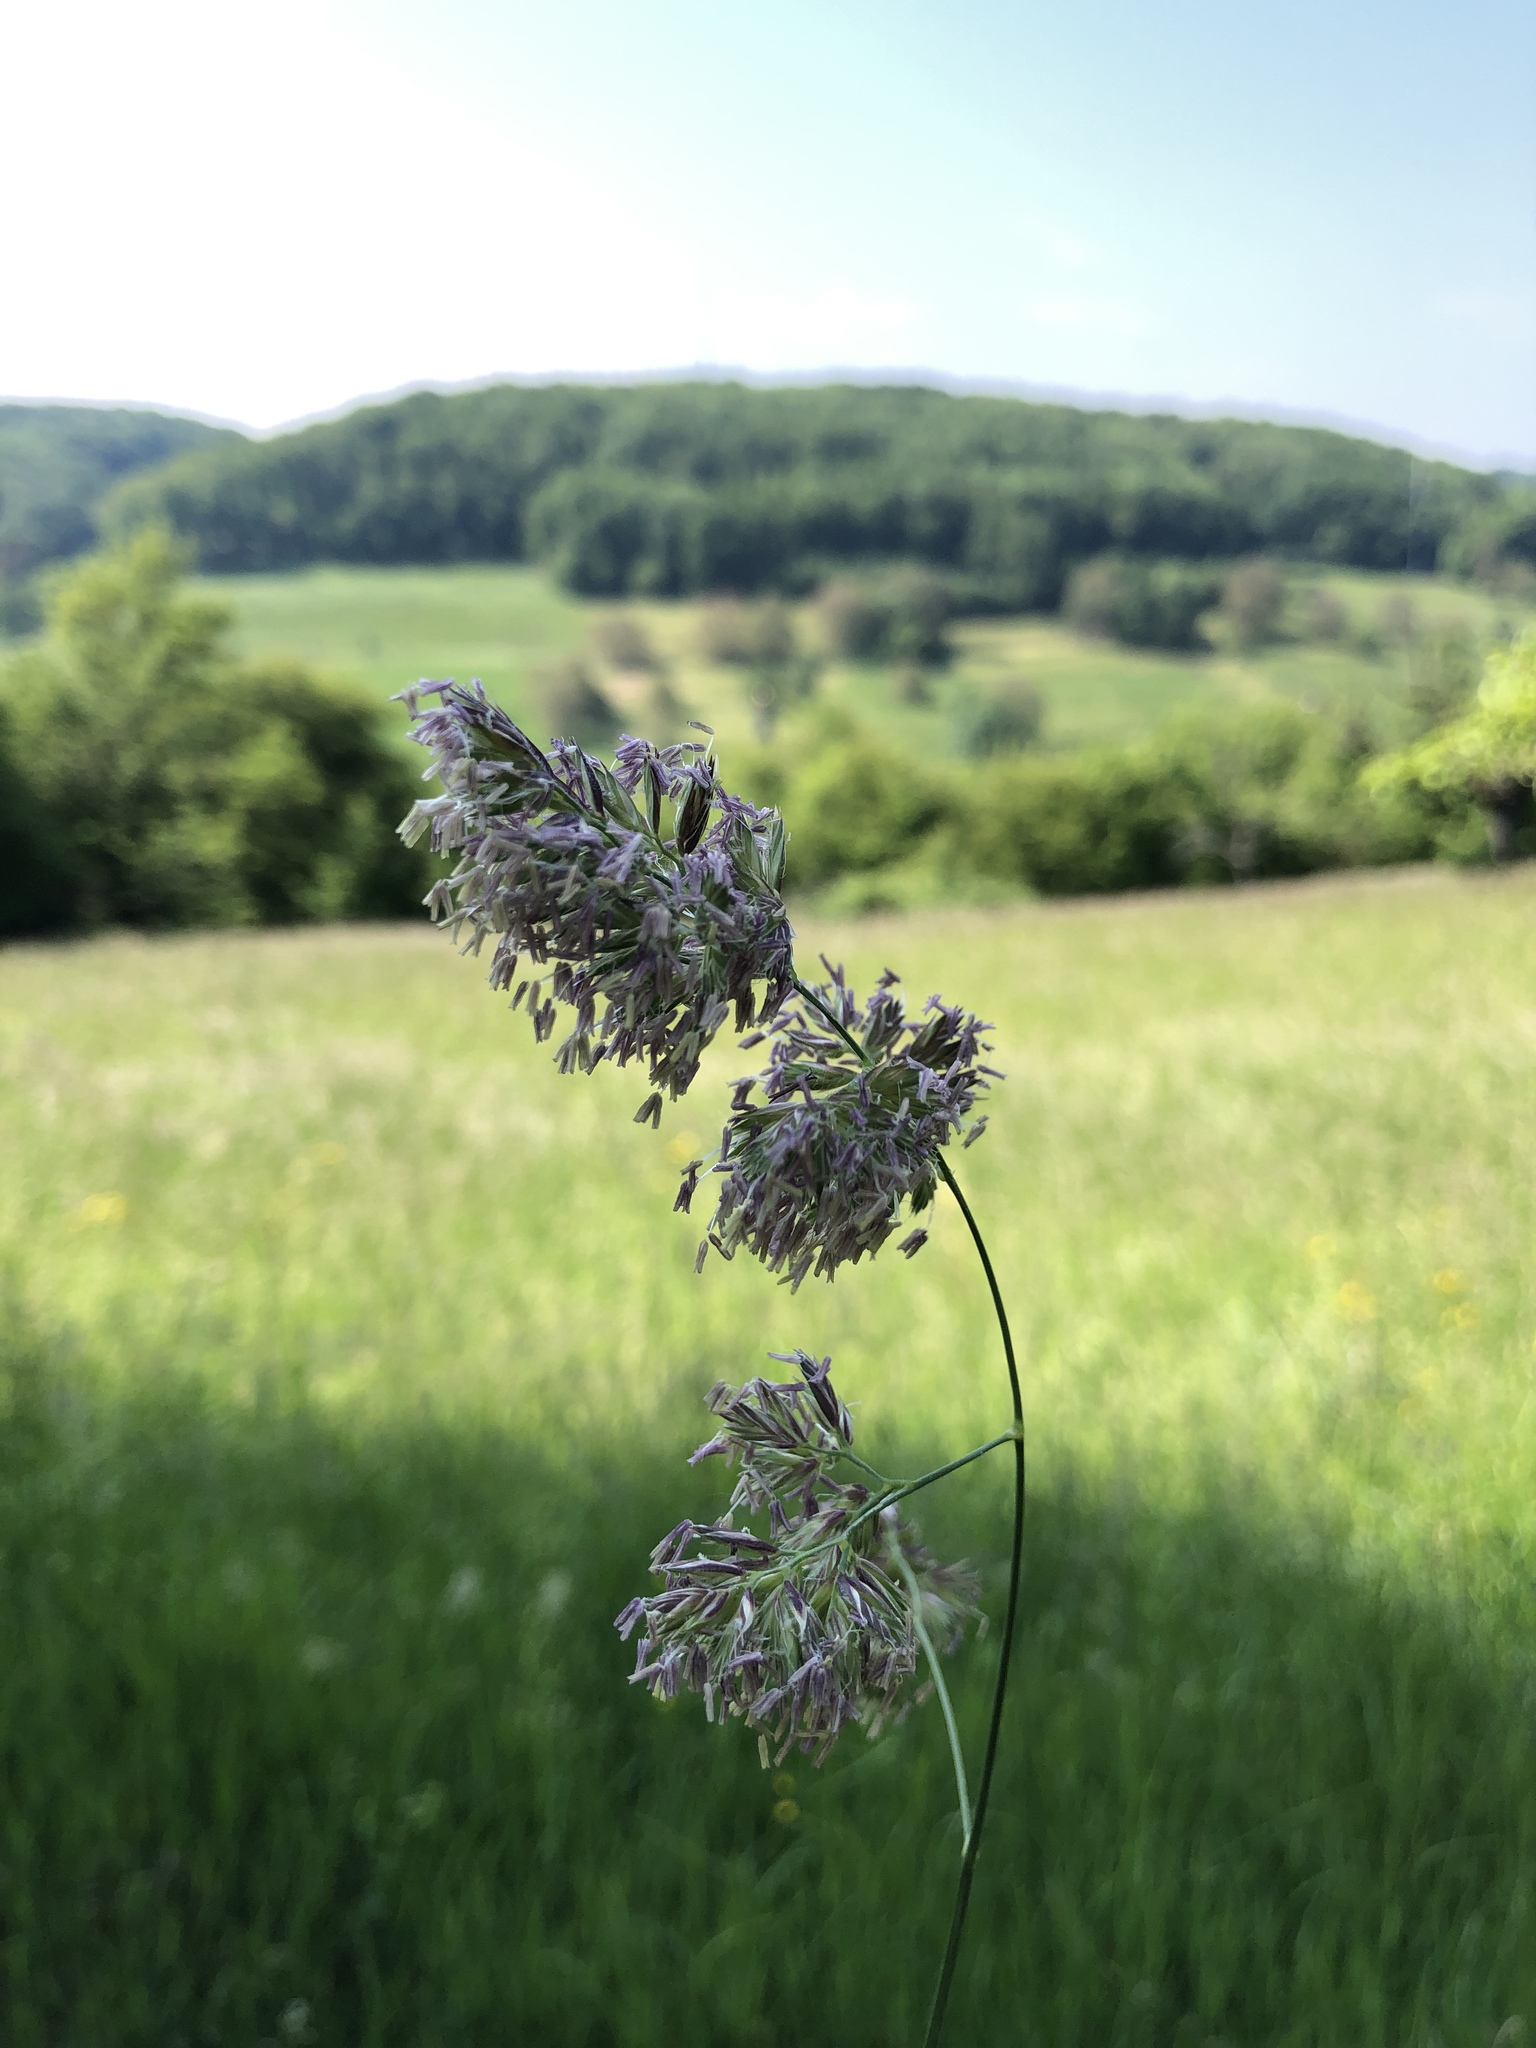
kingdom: Plantae
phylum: Tracheophyta
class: Liliopsida
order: Poales
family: Poaceae
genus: Dactylis
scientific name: Dactylis glomerata
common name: Orchardgrass
